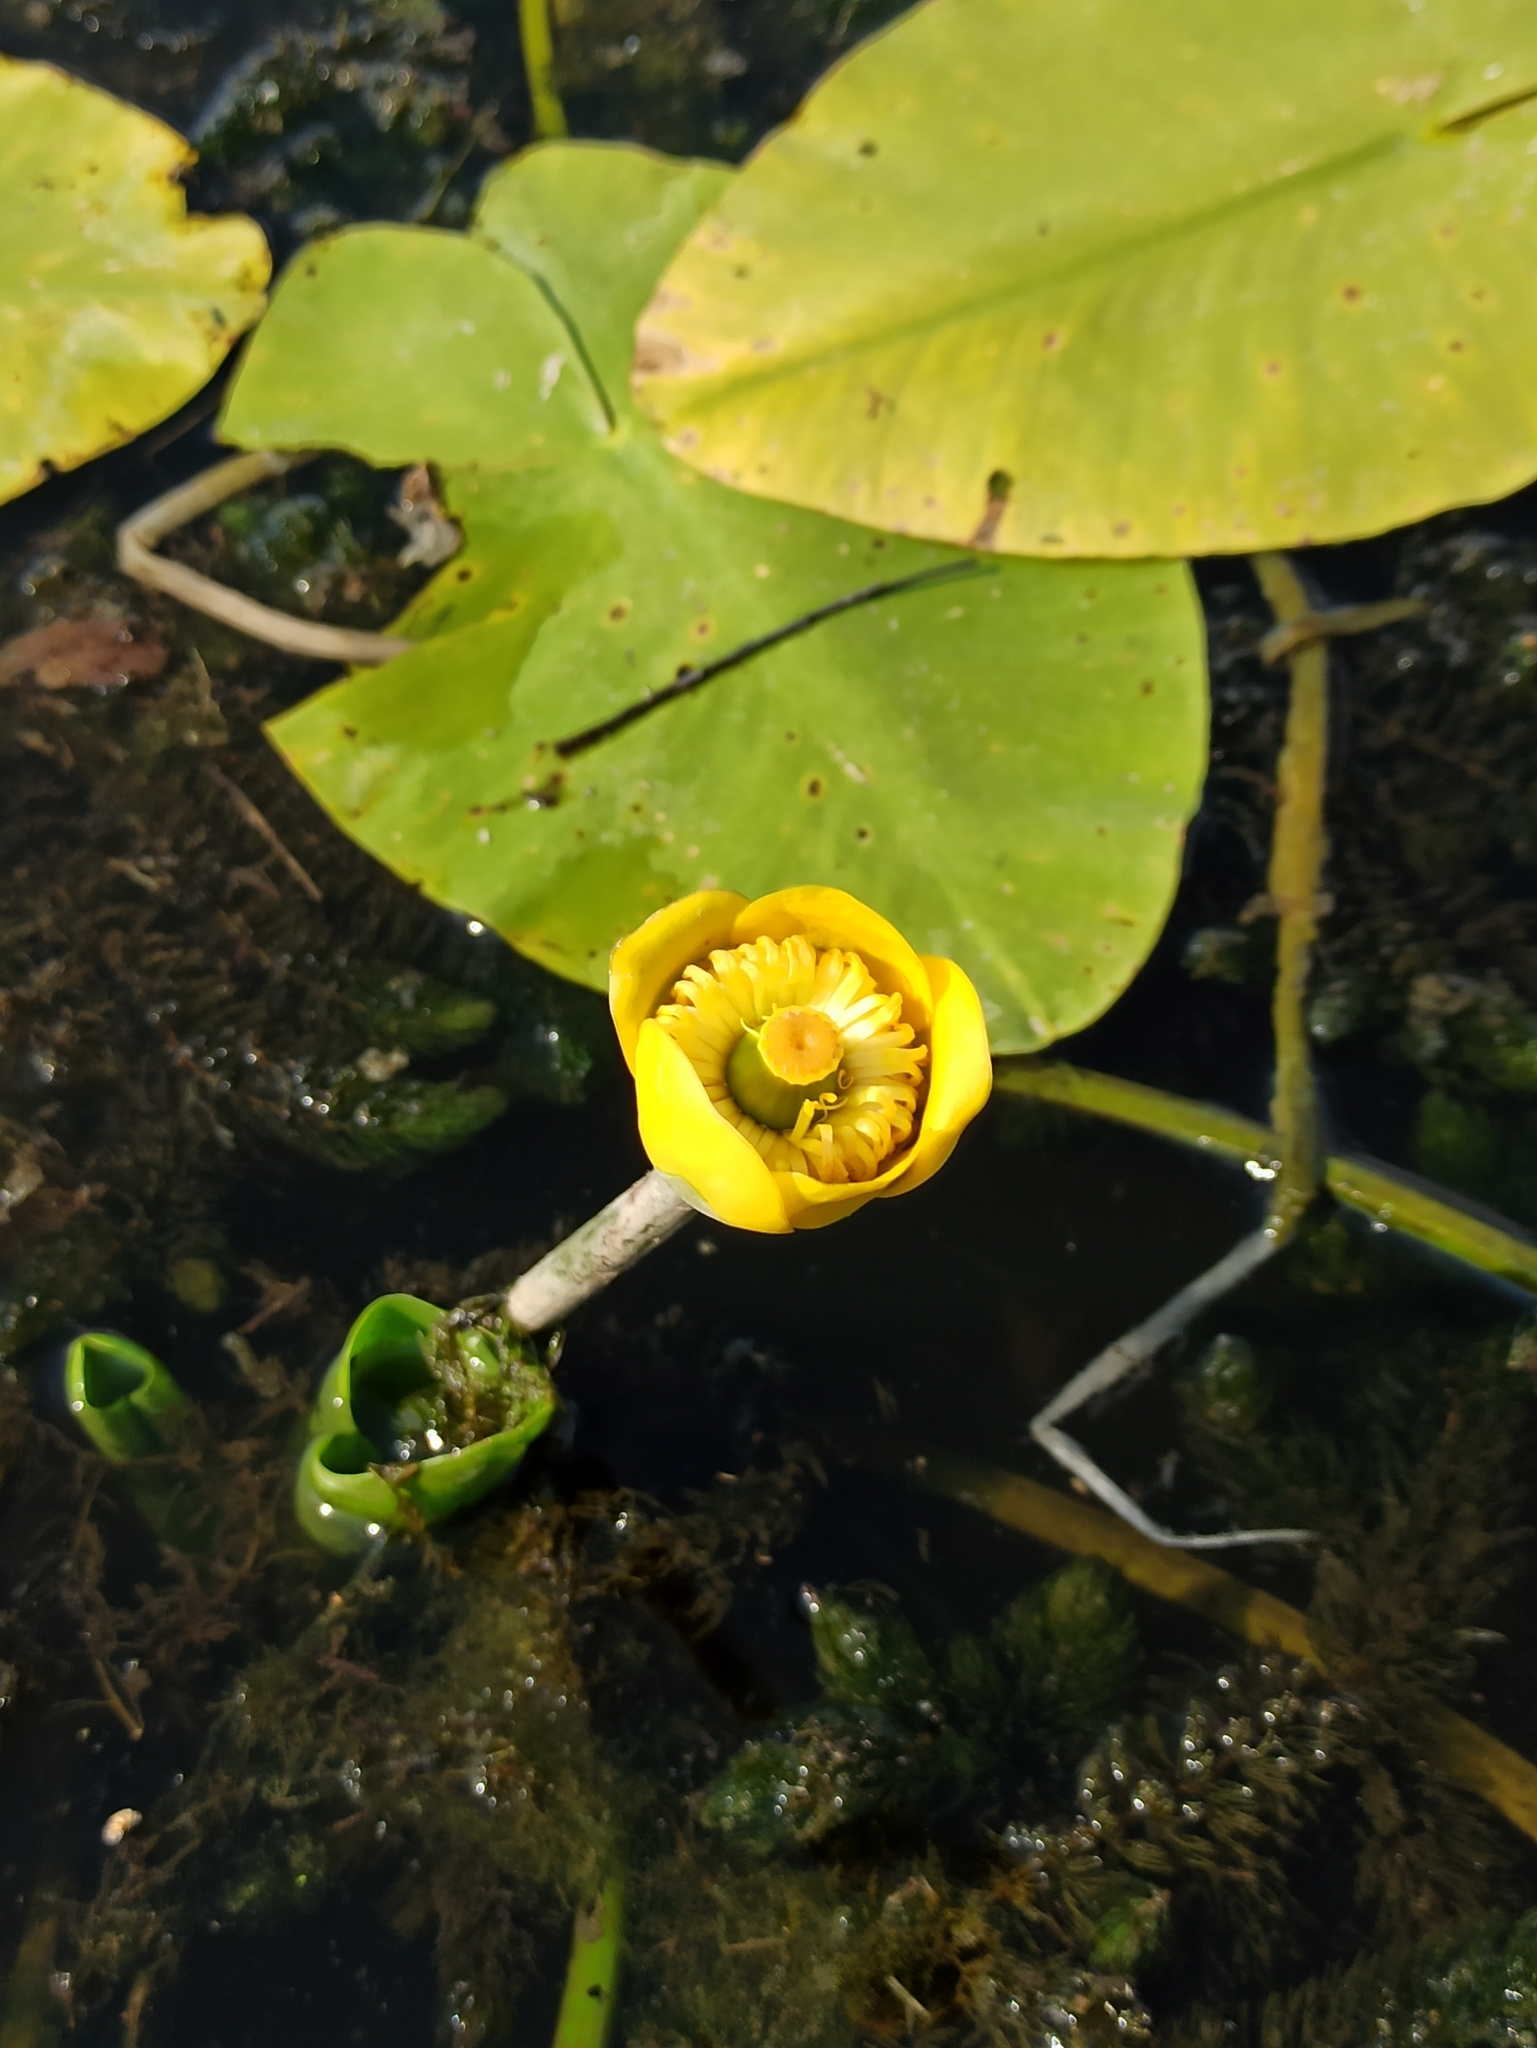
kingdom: Plantae
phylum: Tracheophyta
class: Magnoliopsida
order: Nymphaeales
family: Nymphaeaceae
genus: Nuphar
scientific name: Nuphar lutea
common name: Yellow water-lily
